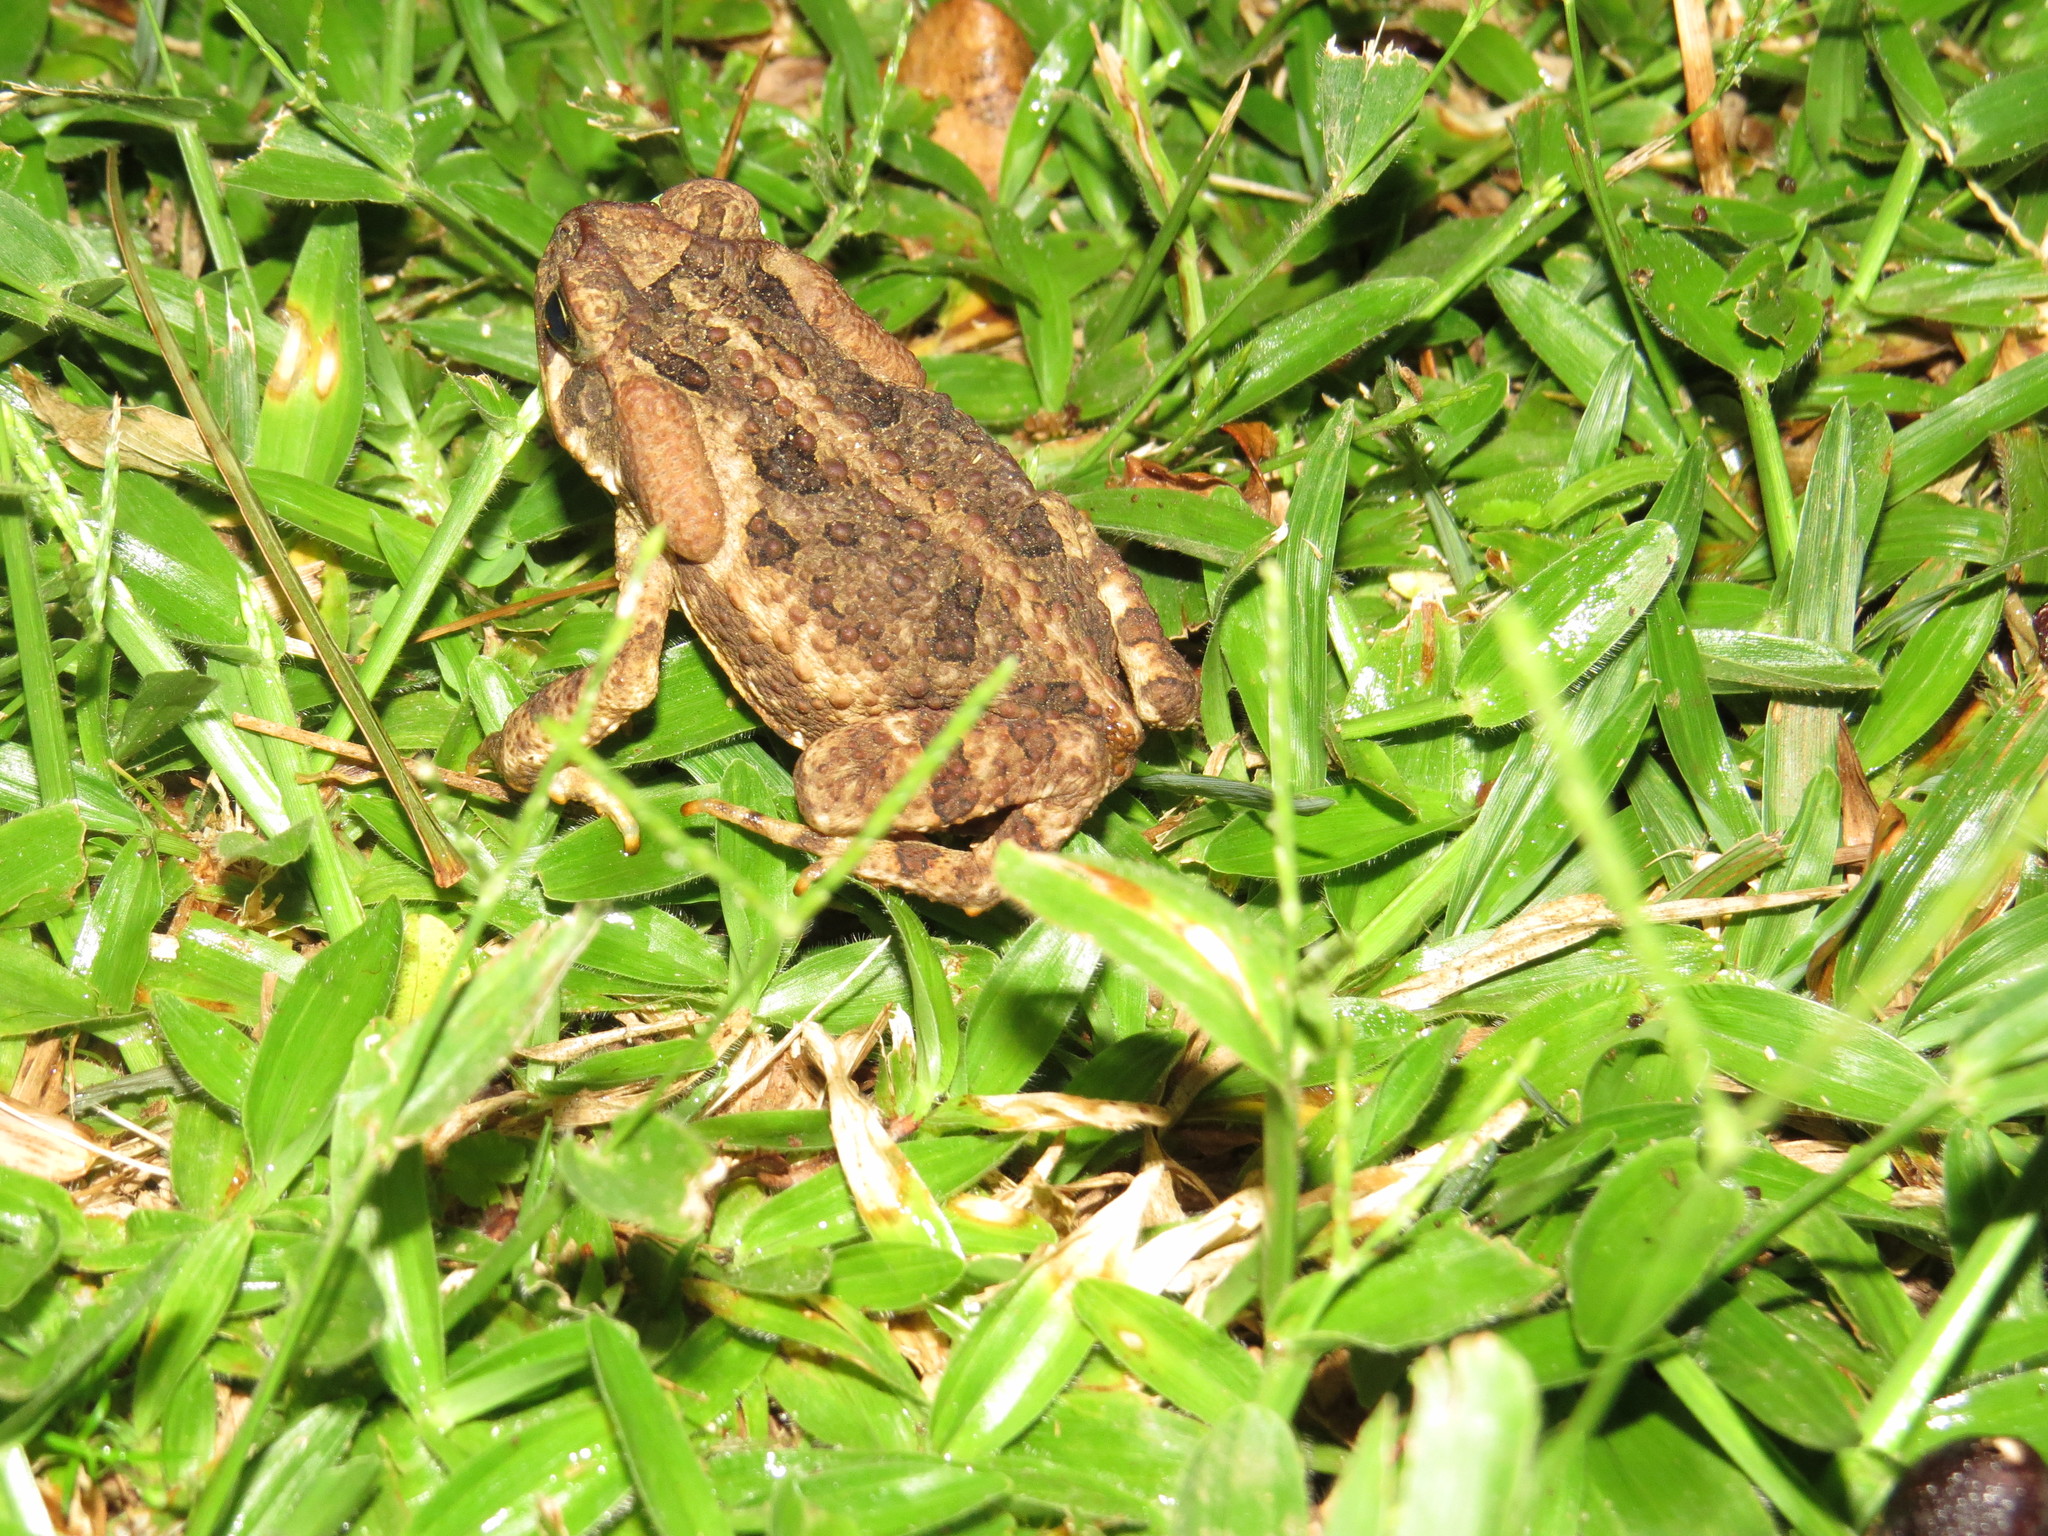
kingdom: Animalia
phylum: Chordata
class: Amphibia
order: Anura
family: Bufonidae
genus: Rhinella
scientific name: Rhinella icterica
